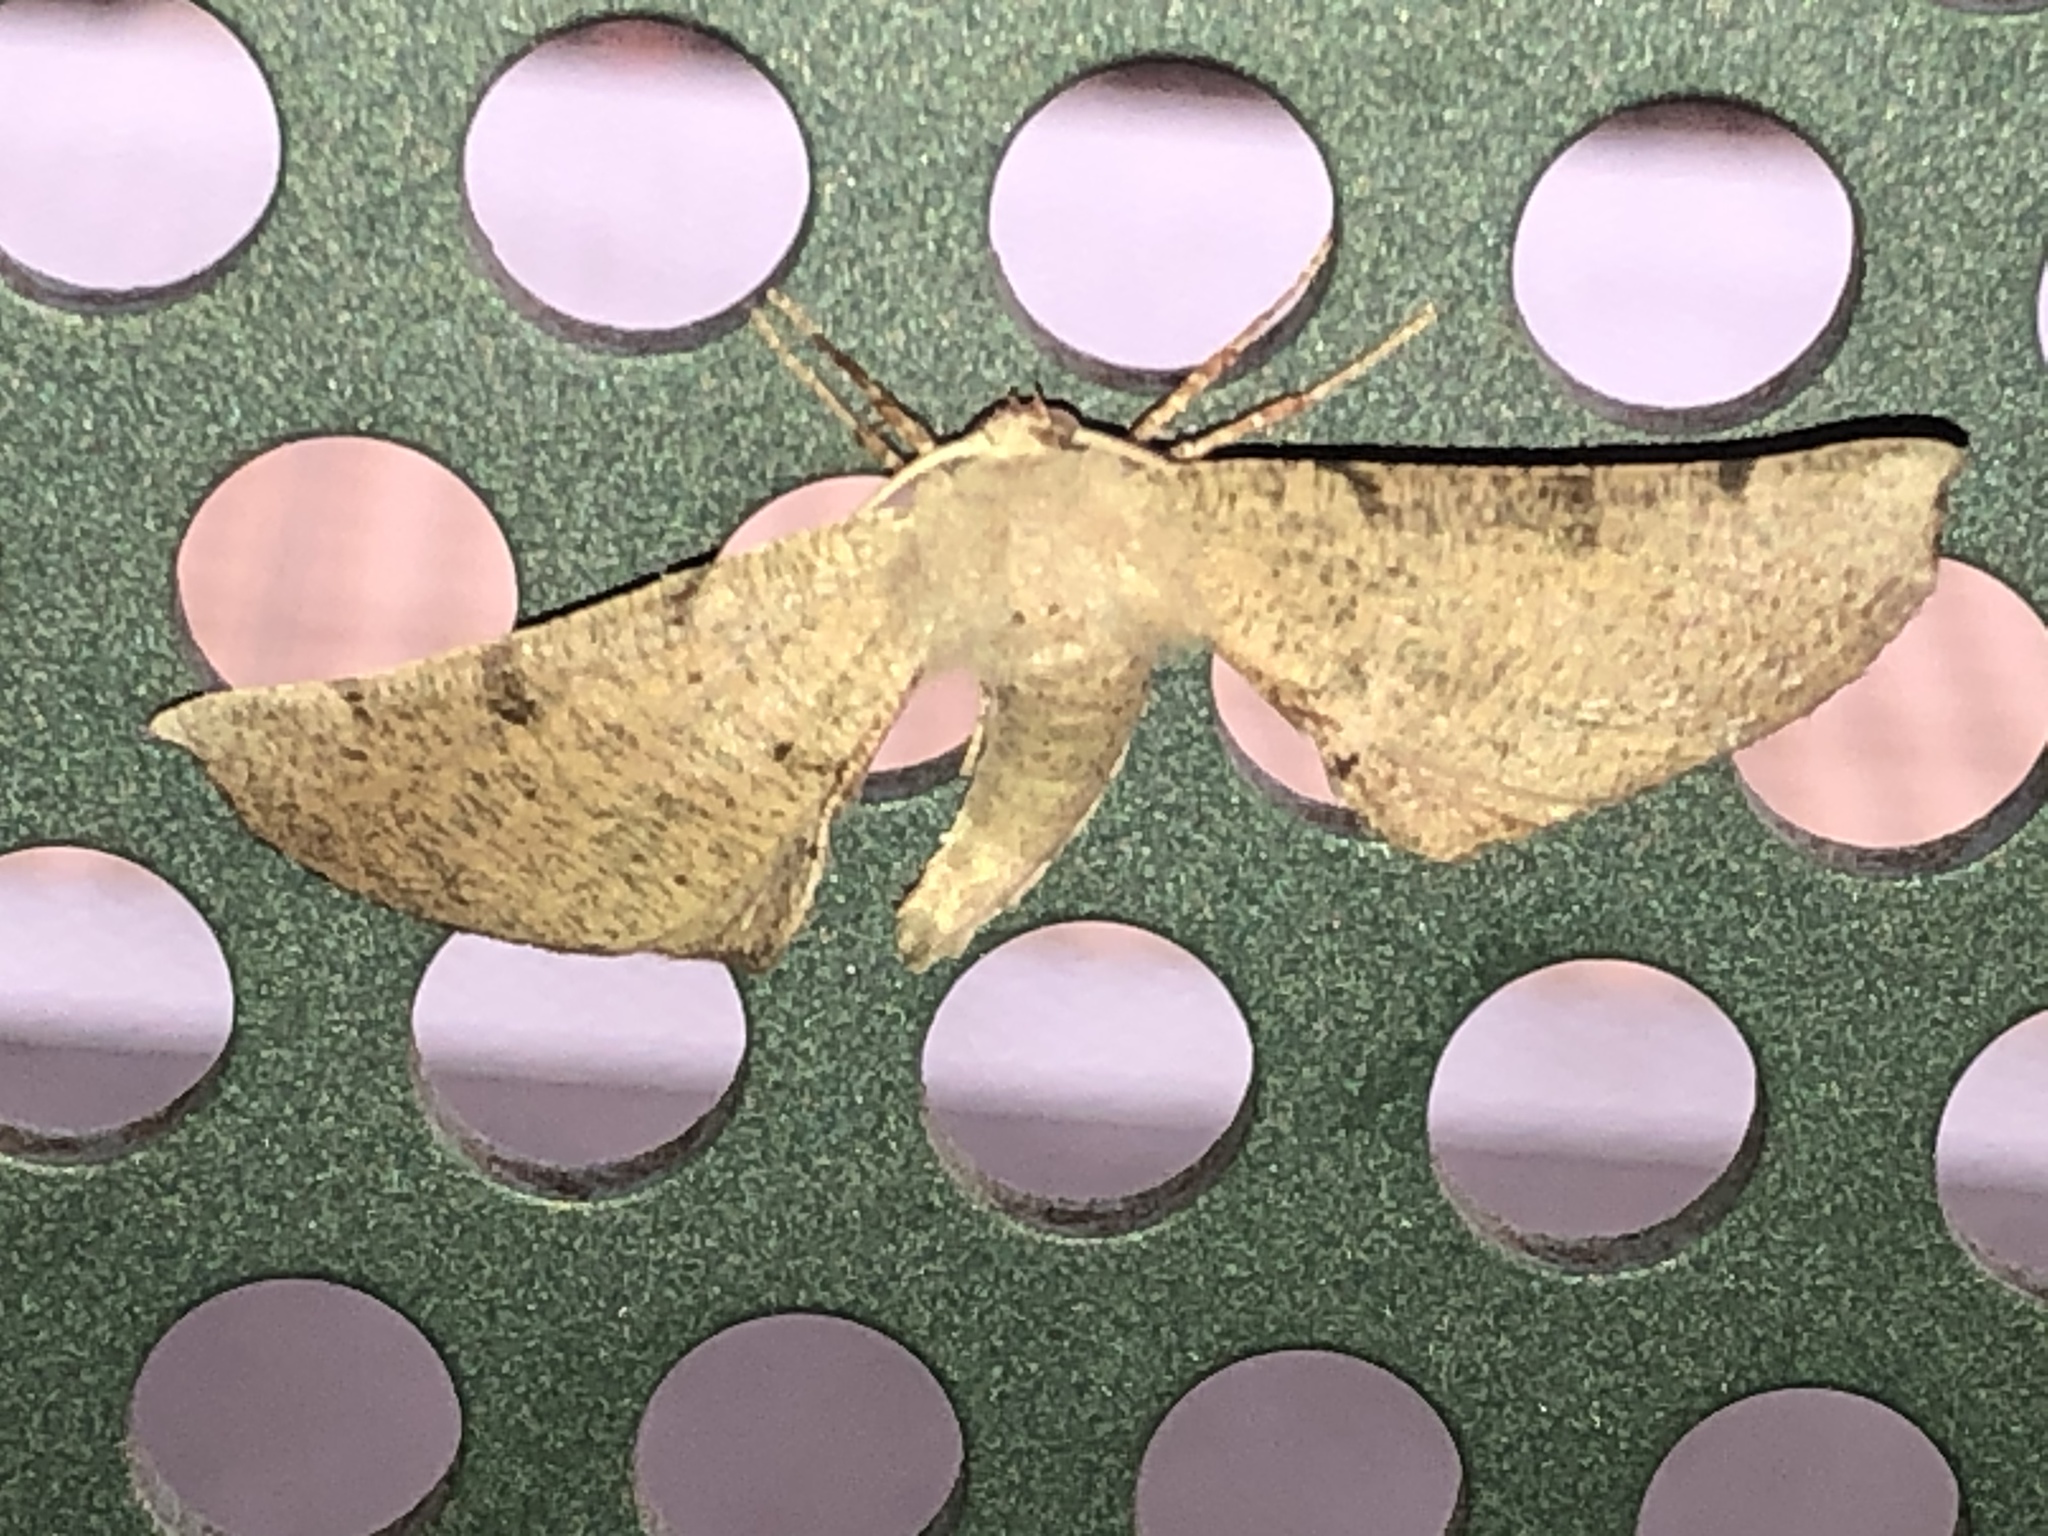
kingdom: Animalia
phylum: Arthropoda
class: Insecta
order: Lepidoptera
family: Geometridae
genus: Circopetes
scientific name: Circopetes obtusata
